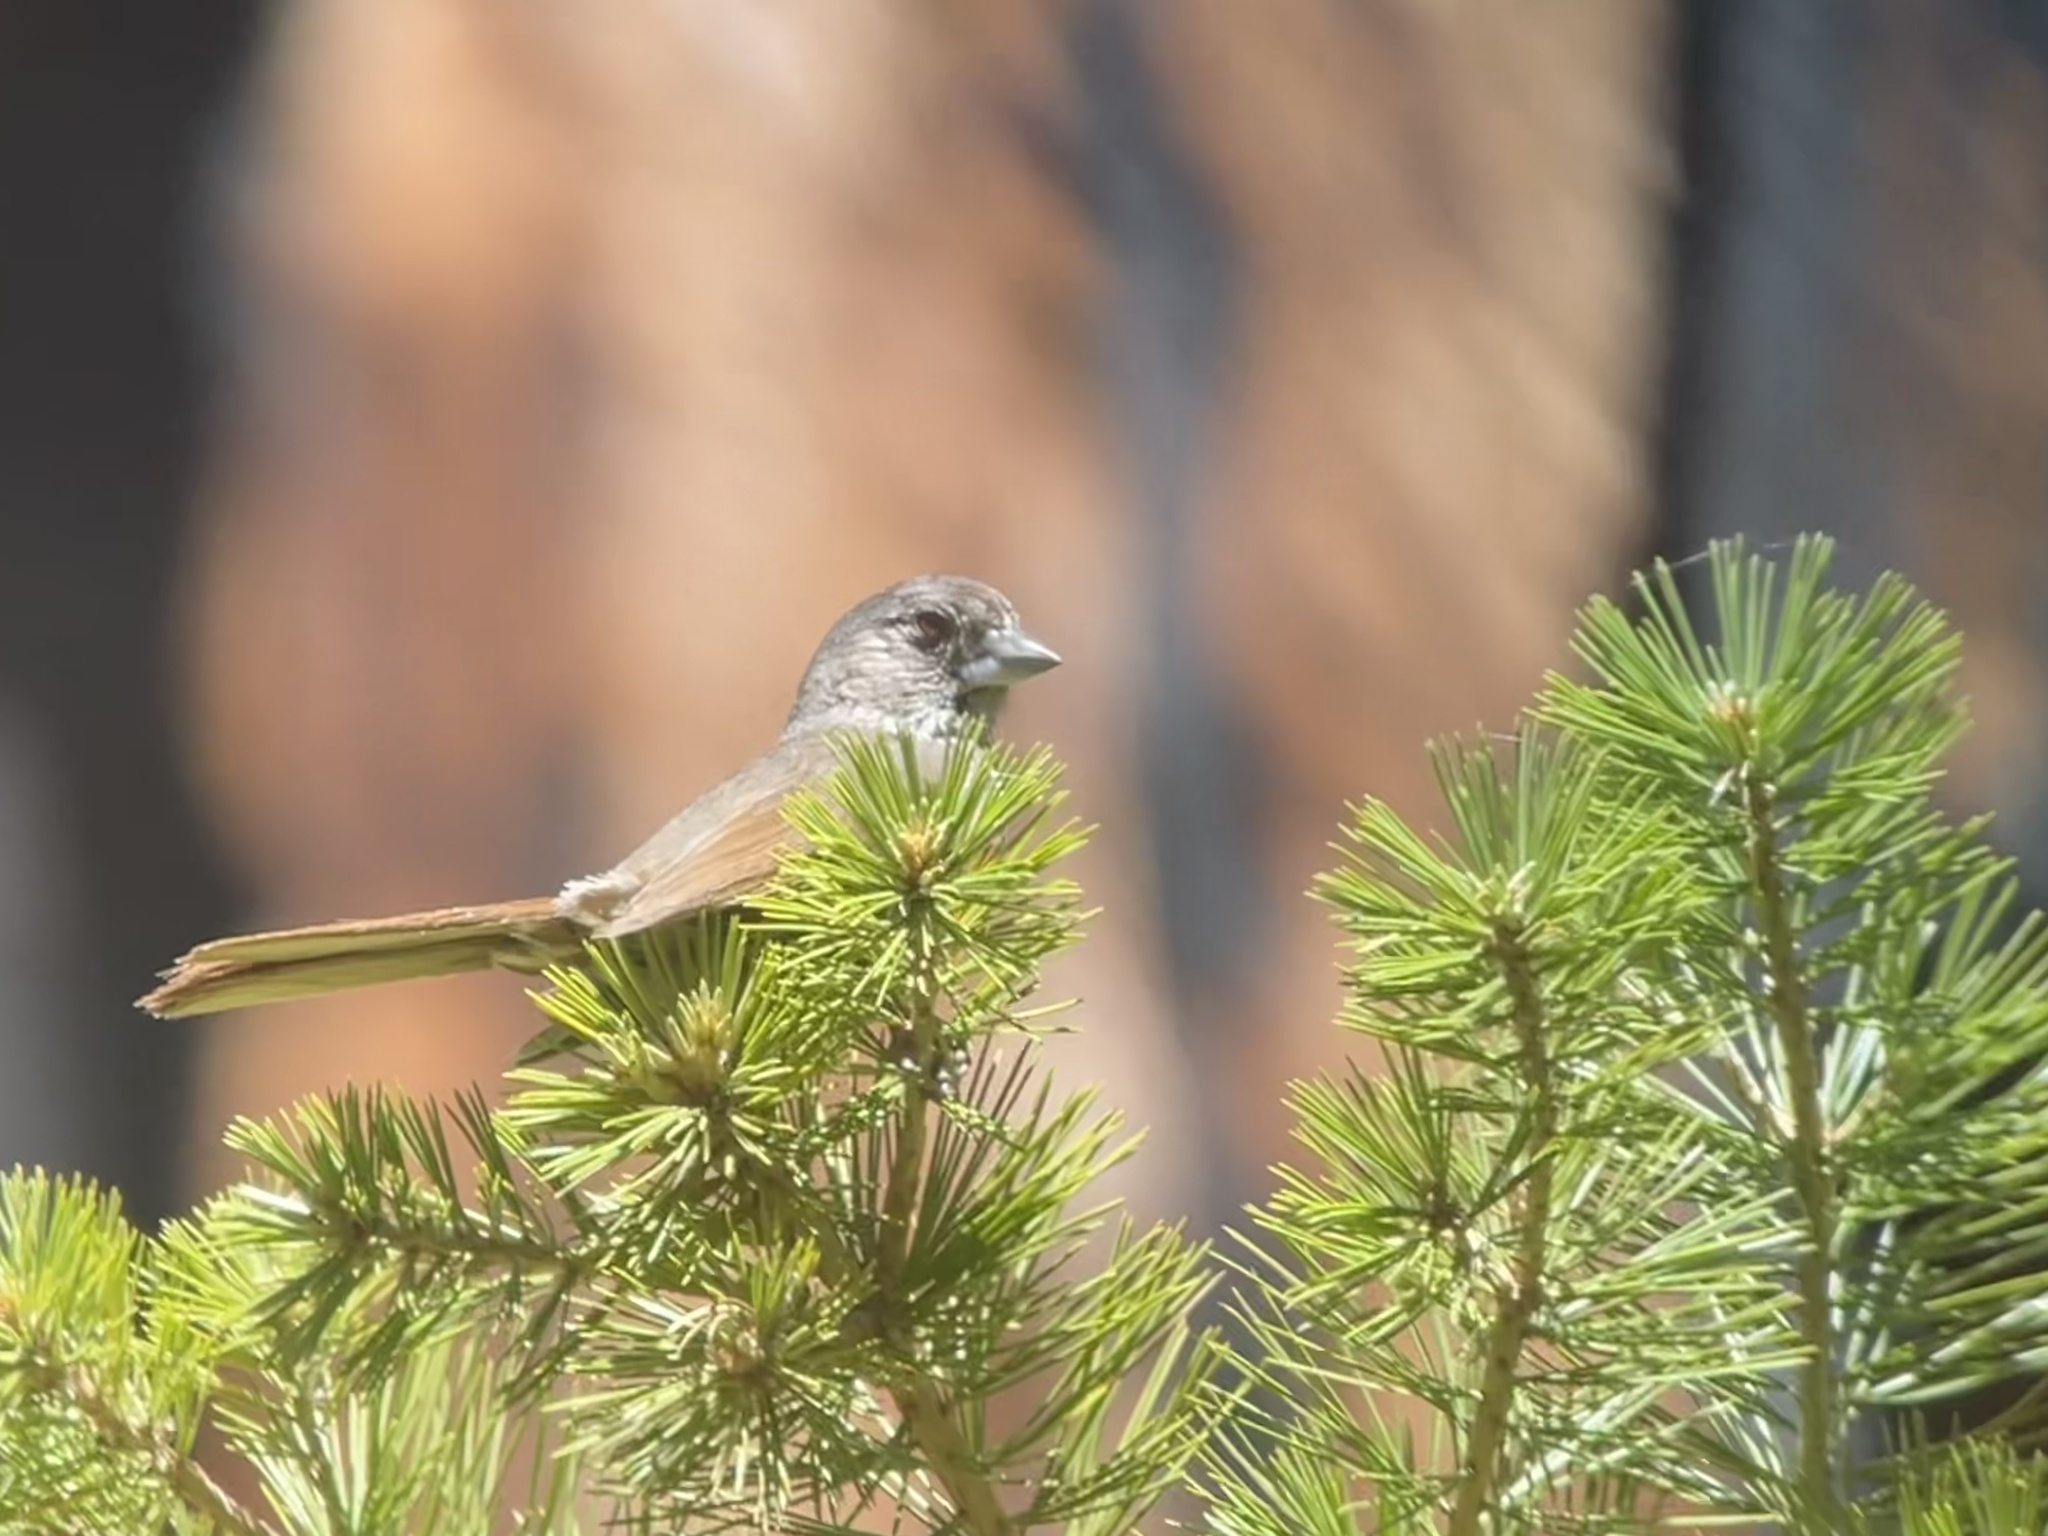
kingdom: Animalia
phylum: Chordata
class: Aves
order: Passeriformes
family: Passerellidae
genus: Passerella
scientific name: Passerella iliaca
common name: Fox sparrow
